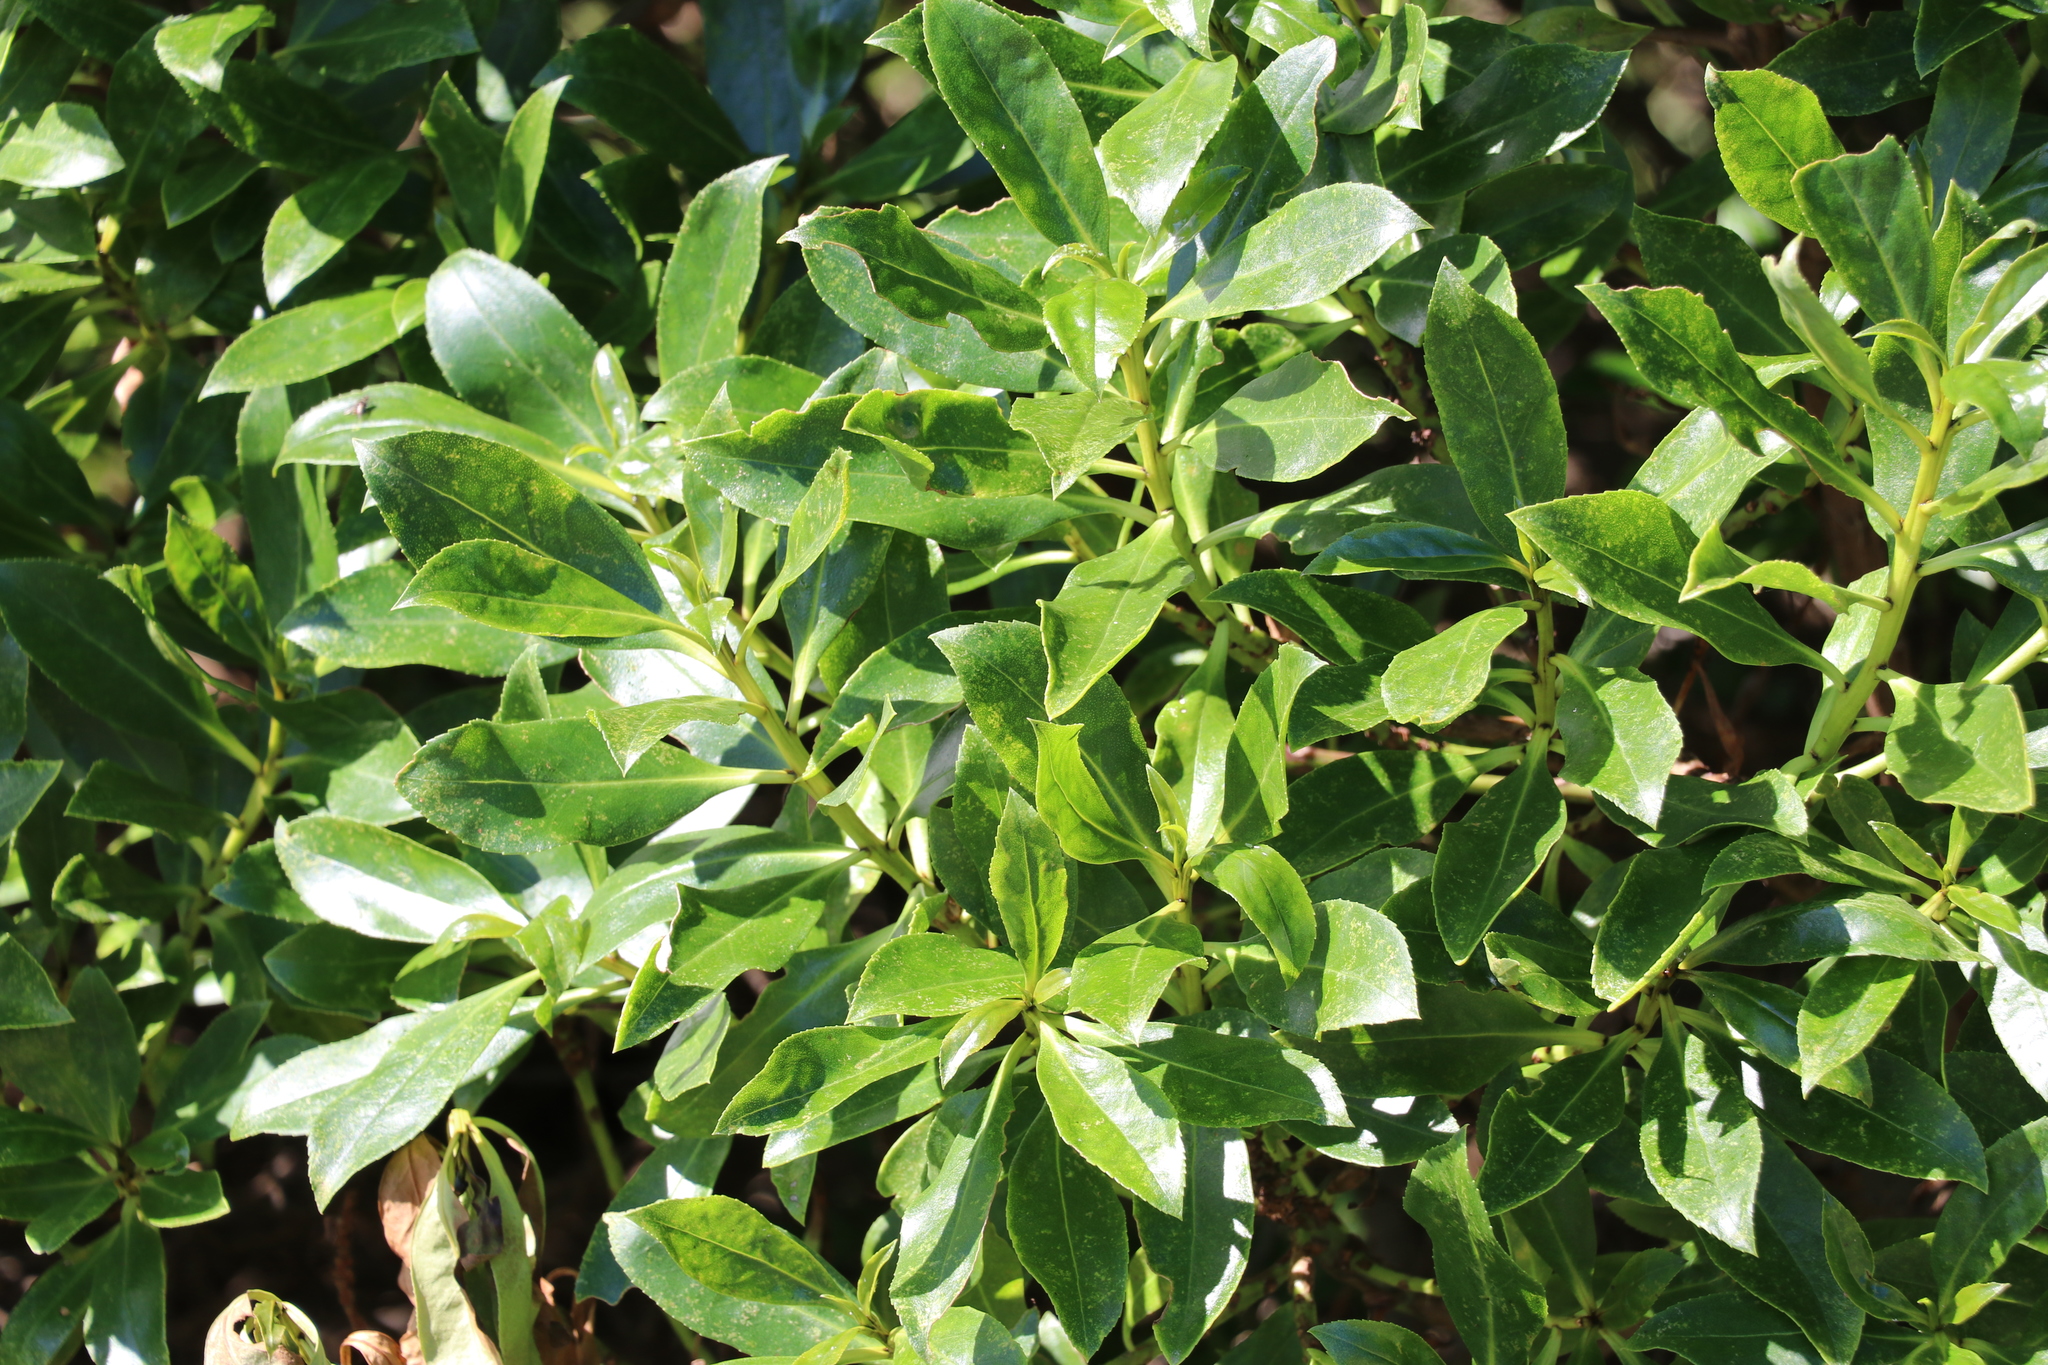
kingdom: Plantae
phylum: Tracheophyta
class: Magnoliopsida
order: Lamiales
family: Scrophulariaceae
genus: Myoporum
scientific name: Myoporum laetum
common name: Ngaio tree
